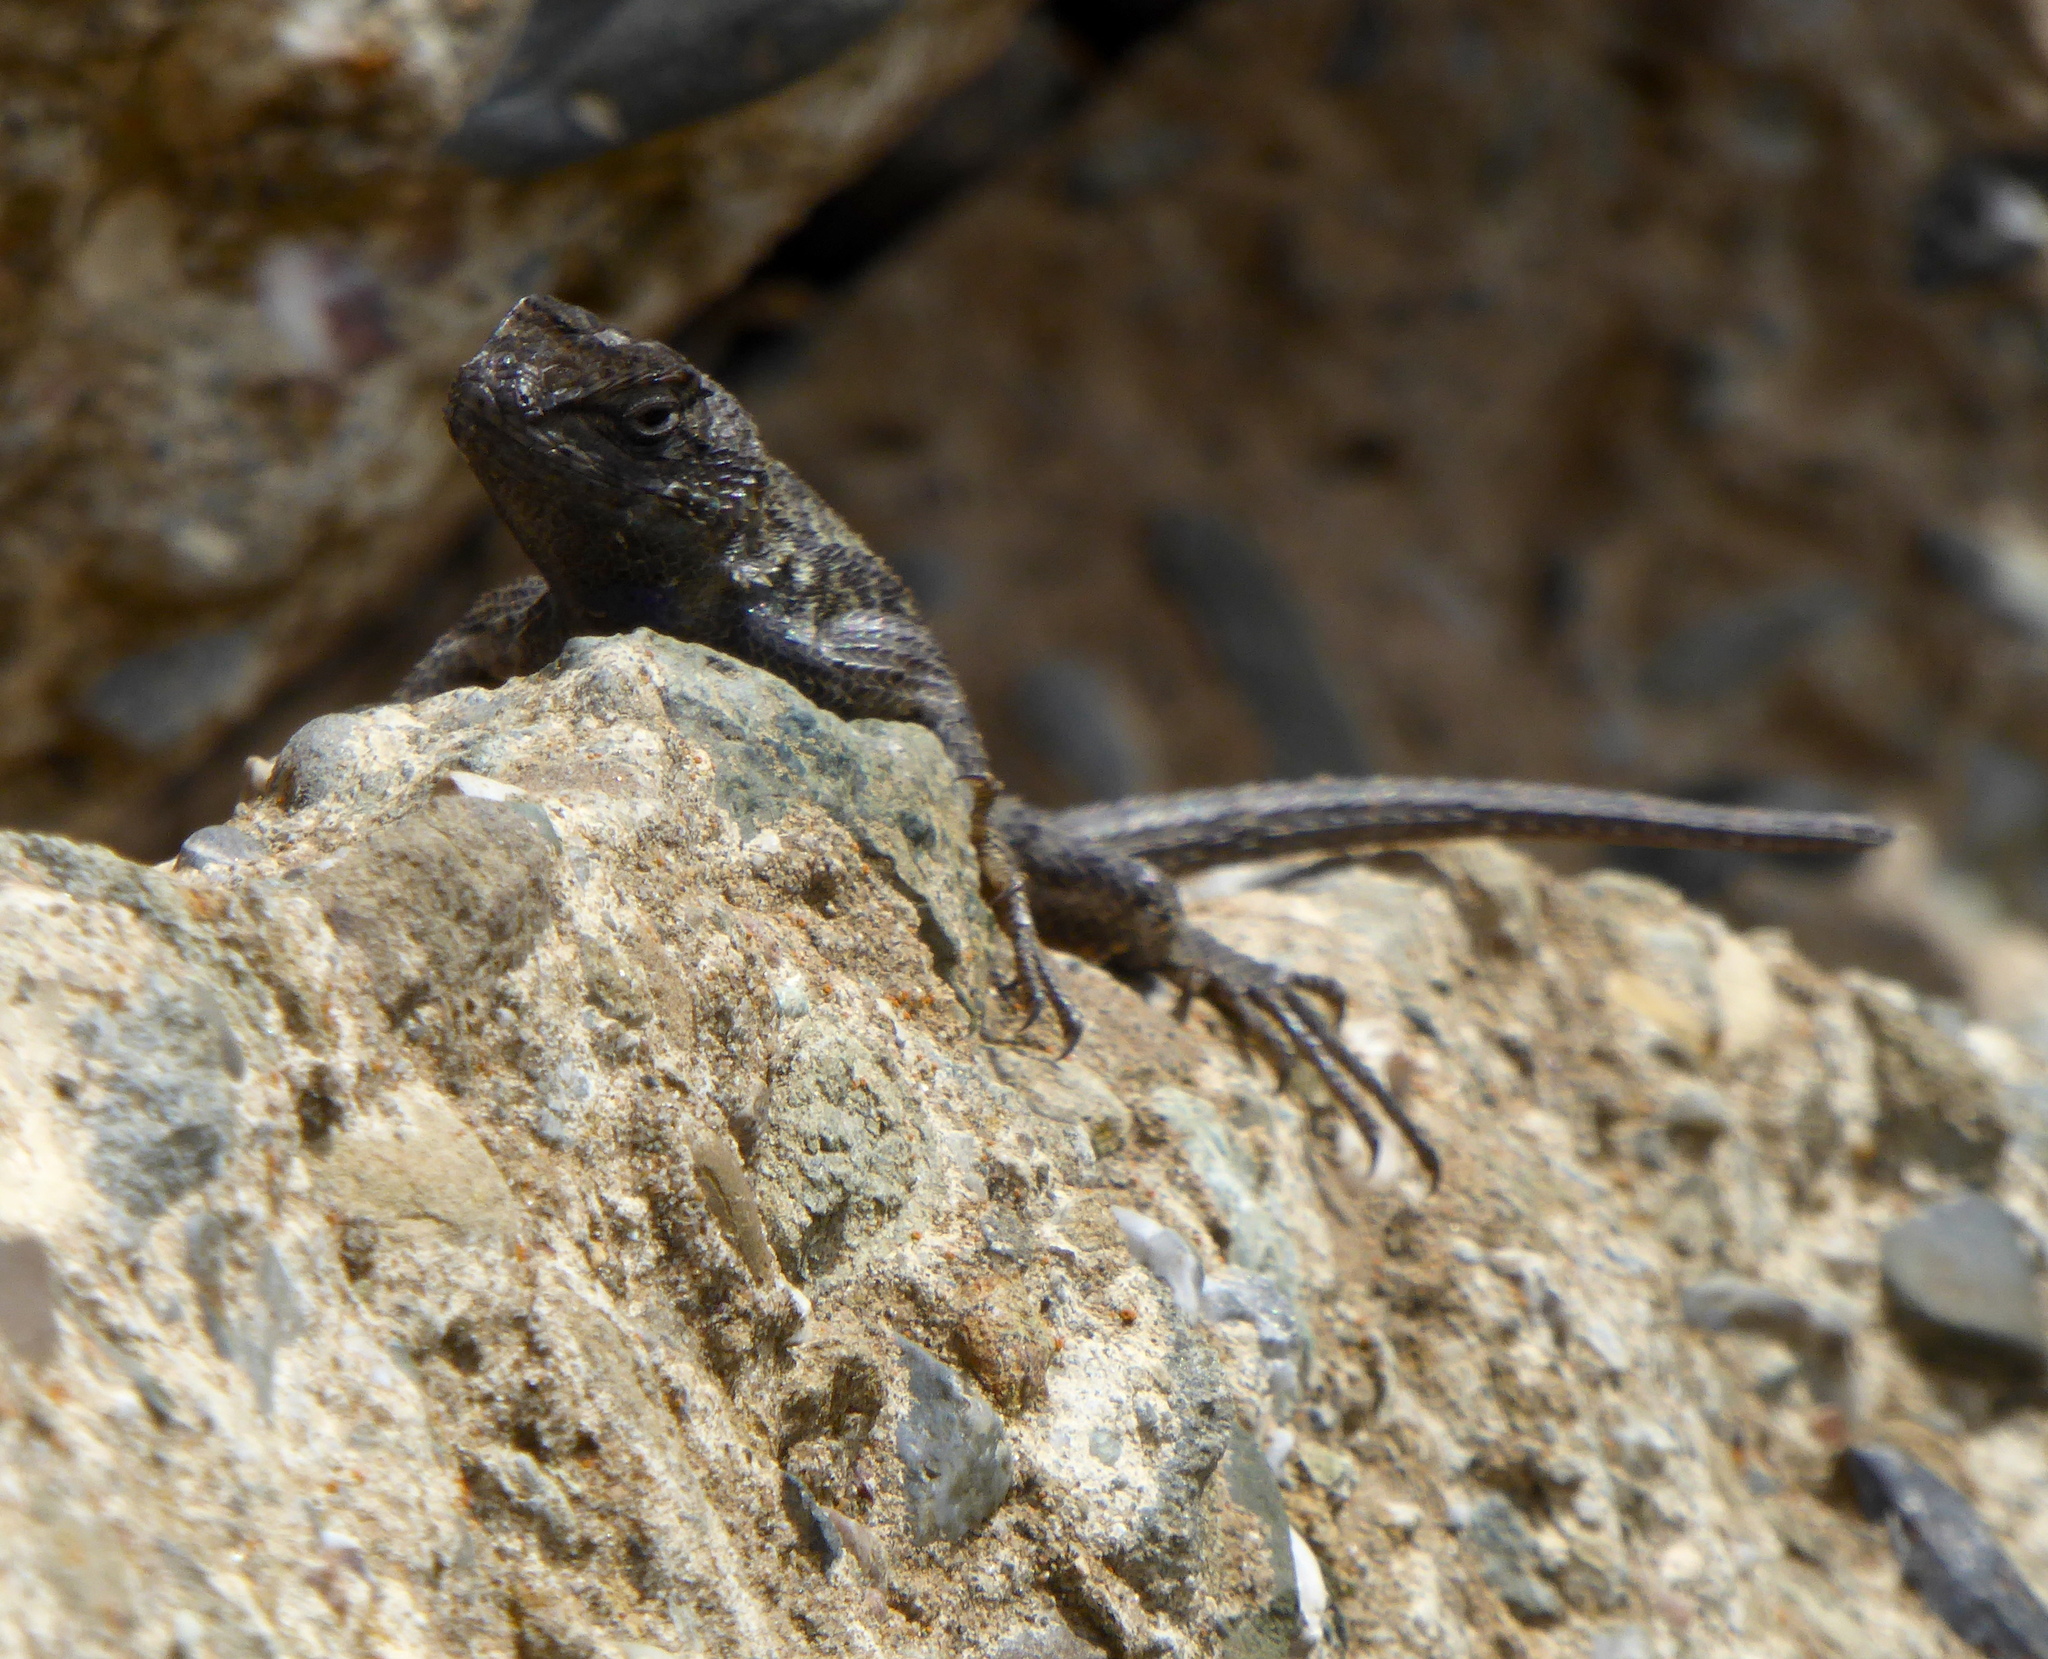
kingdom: Animalia
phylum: Chordata
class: Squamata
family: Phrynosomatidae
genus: Sceloporus
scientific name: Sceloporus occidentalis
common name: Western fence lizard
